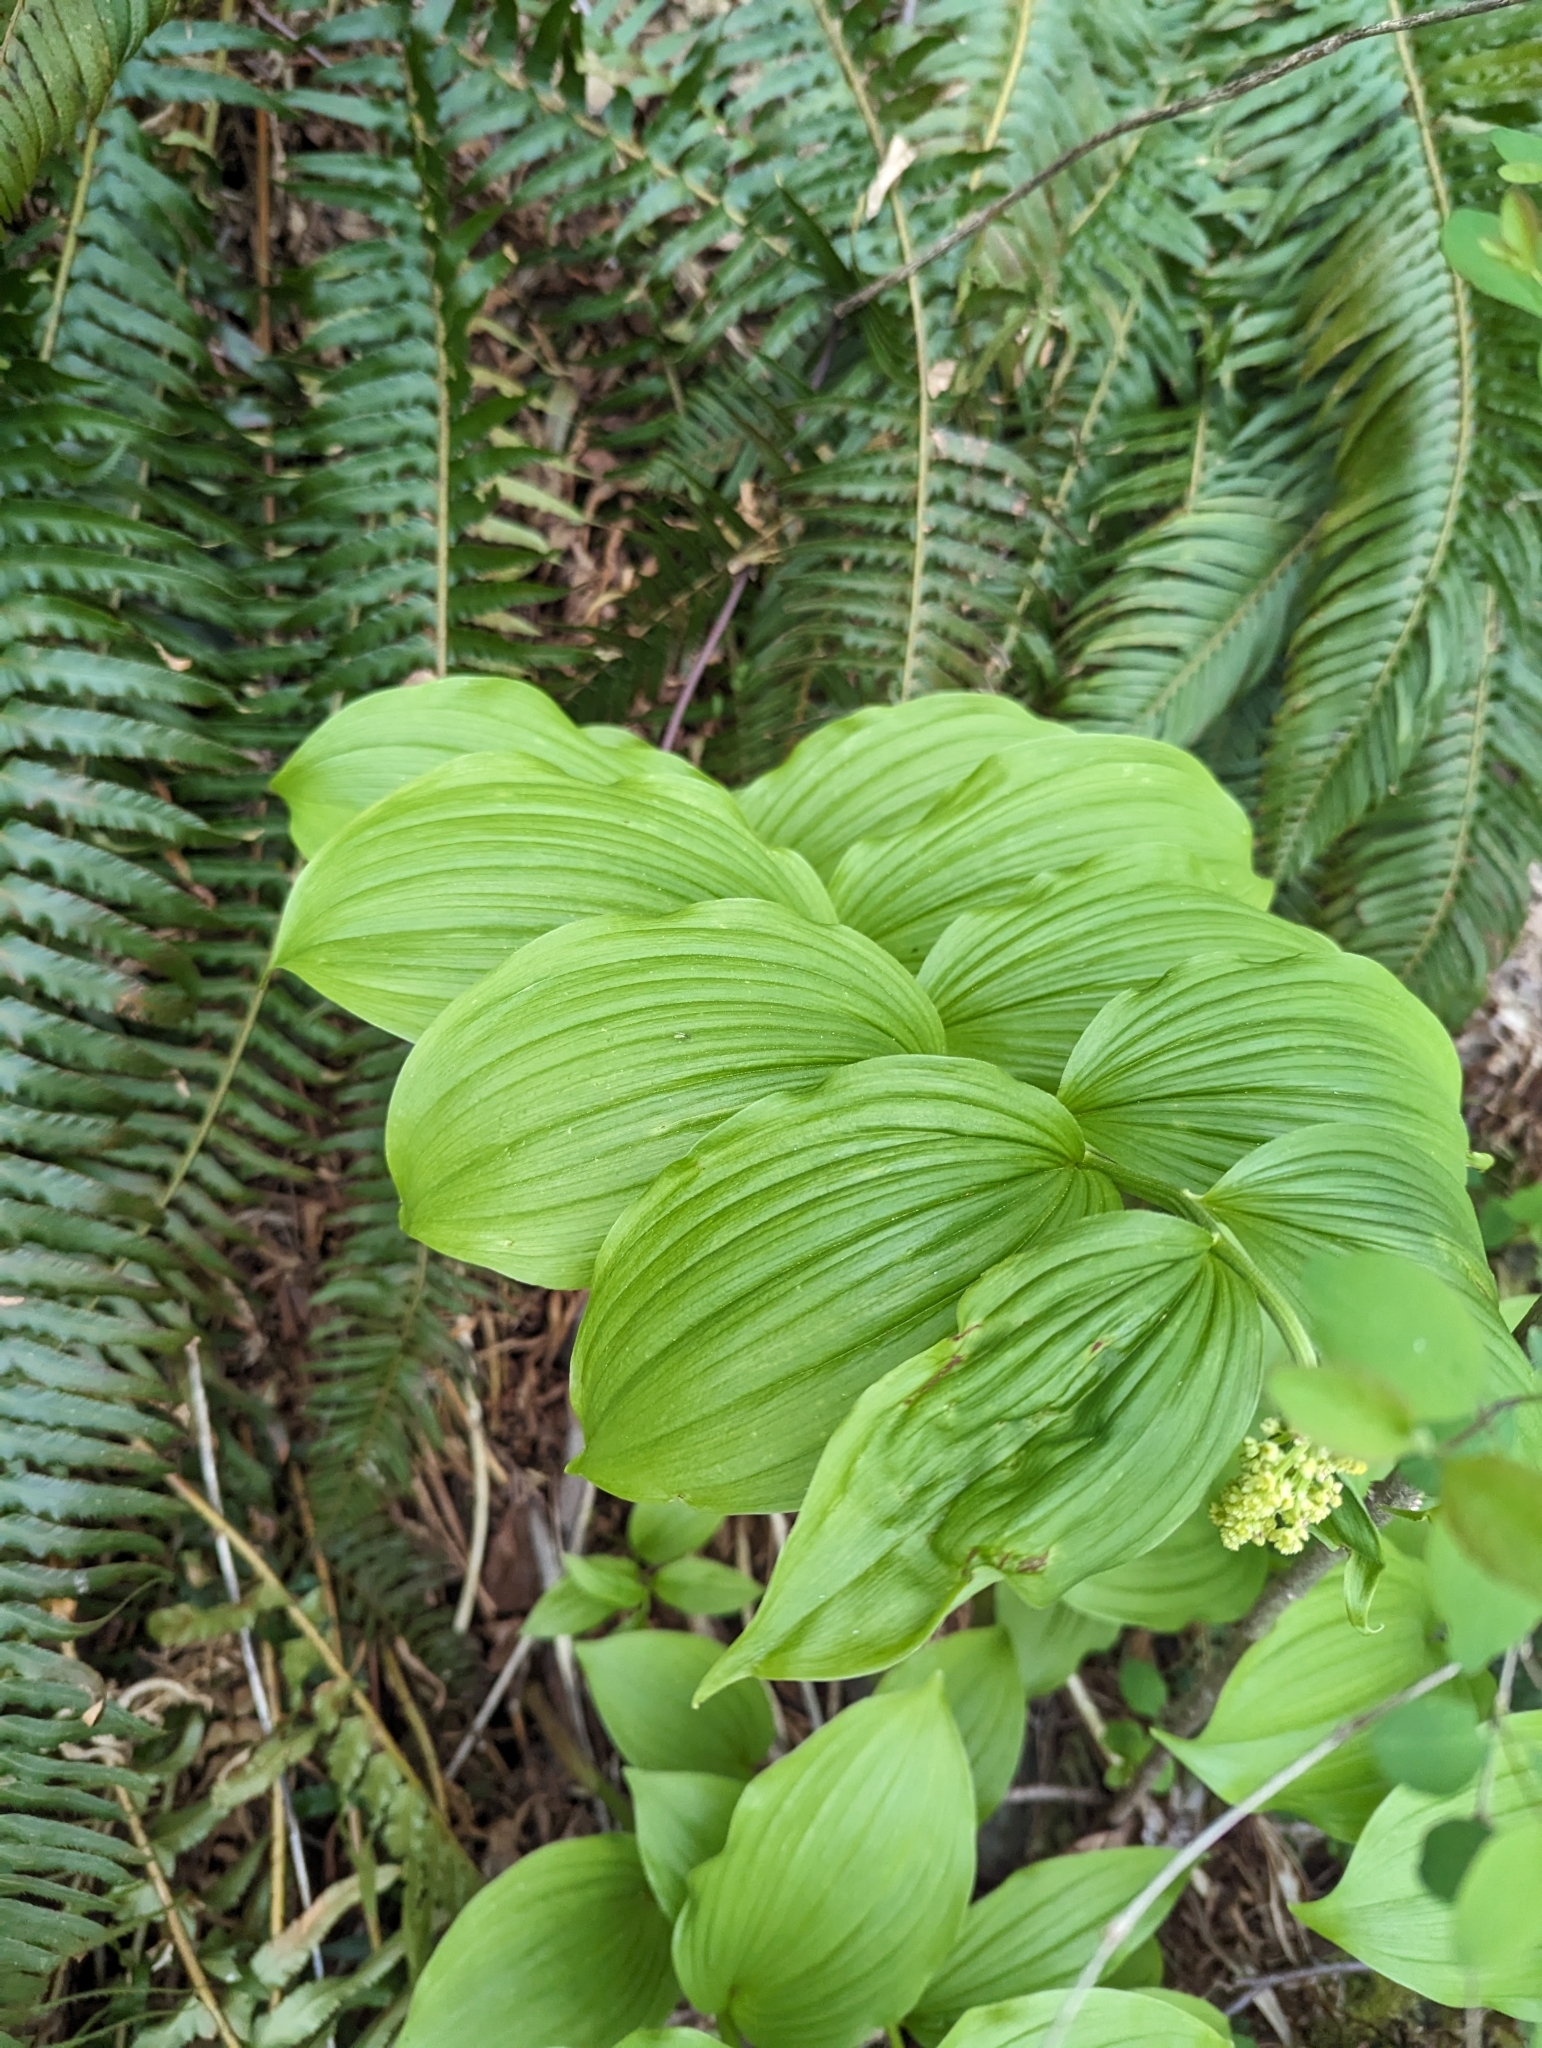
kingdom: Plantae
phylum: Tracheophyta
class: Liliopsida
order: Asparagales
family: Asparagaceae
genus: Maianthemum
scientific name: Maianthemum racemosum
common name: False spikenard
